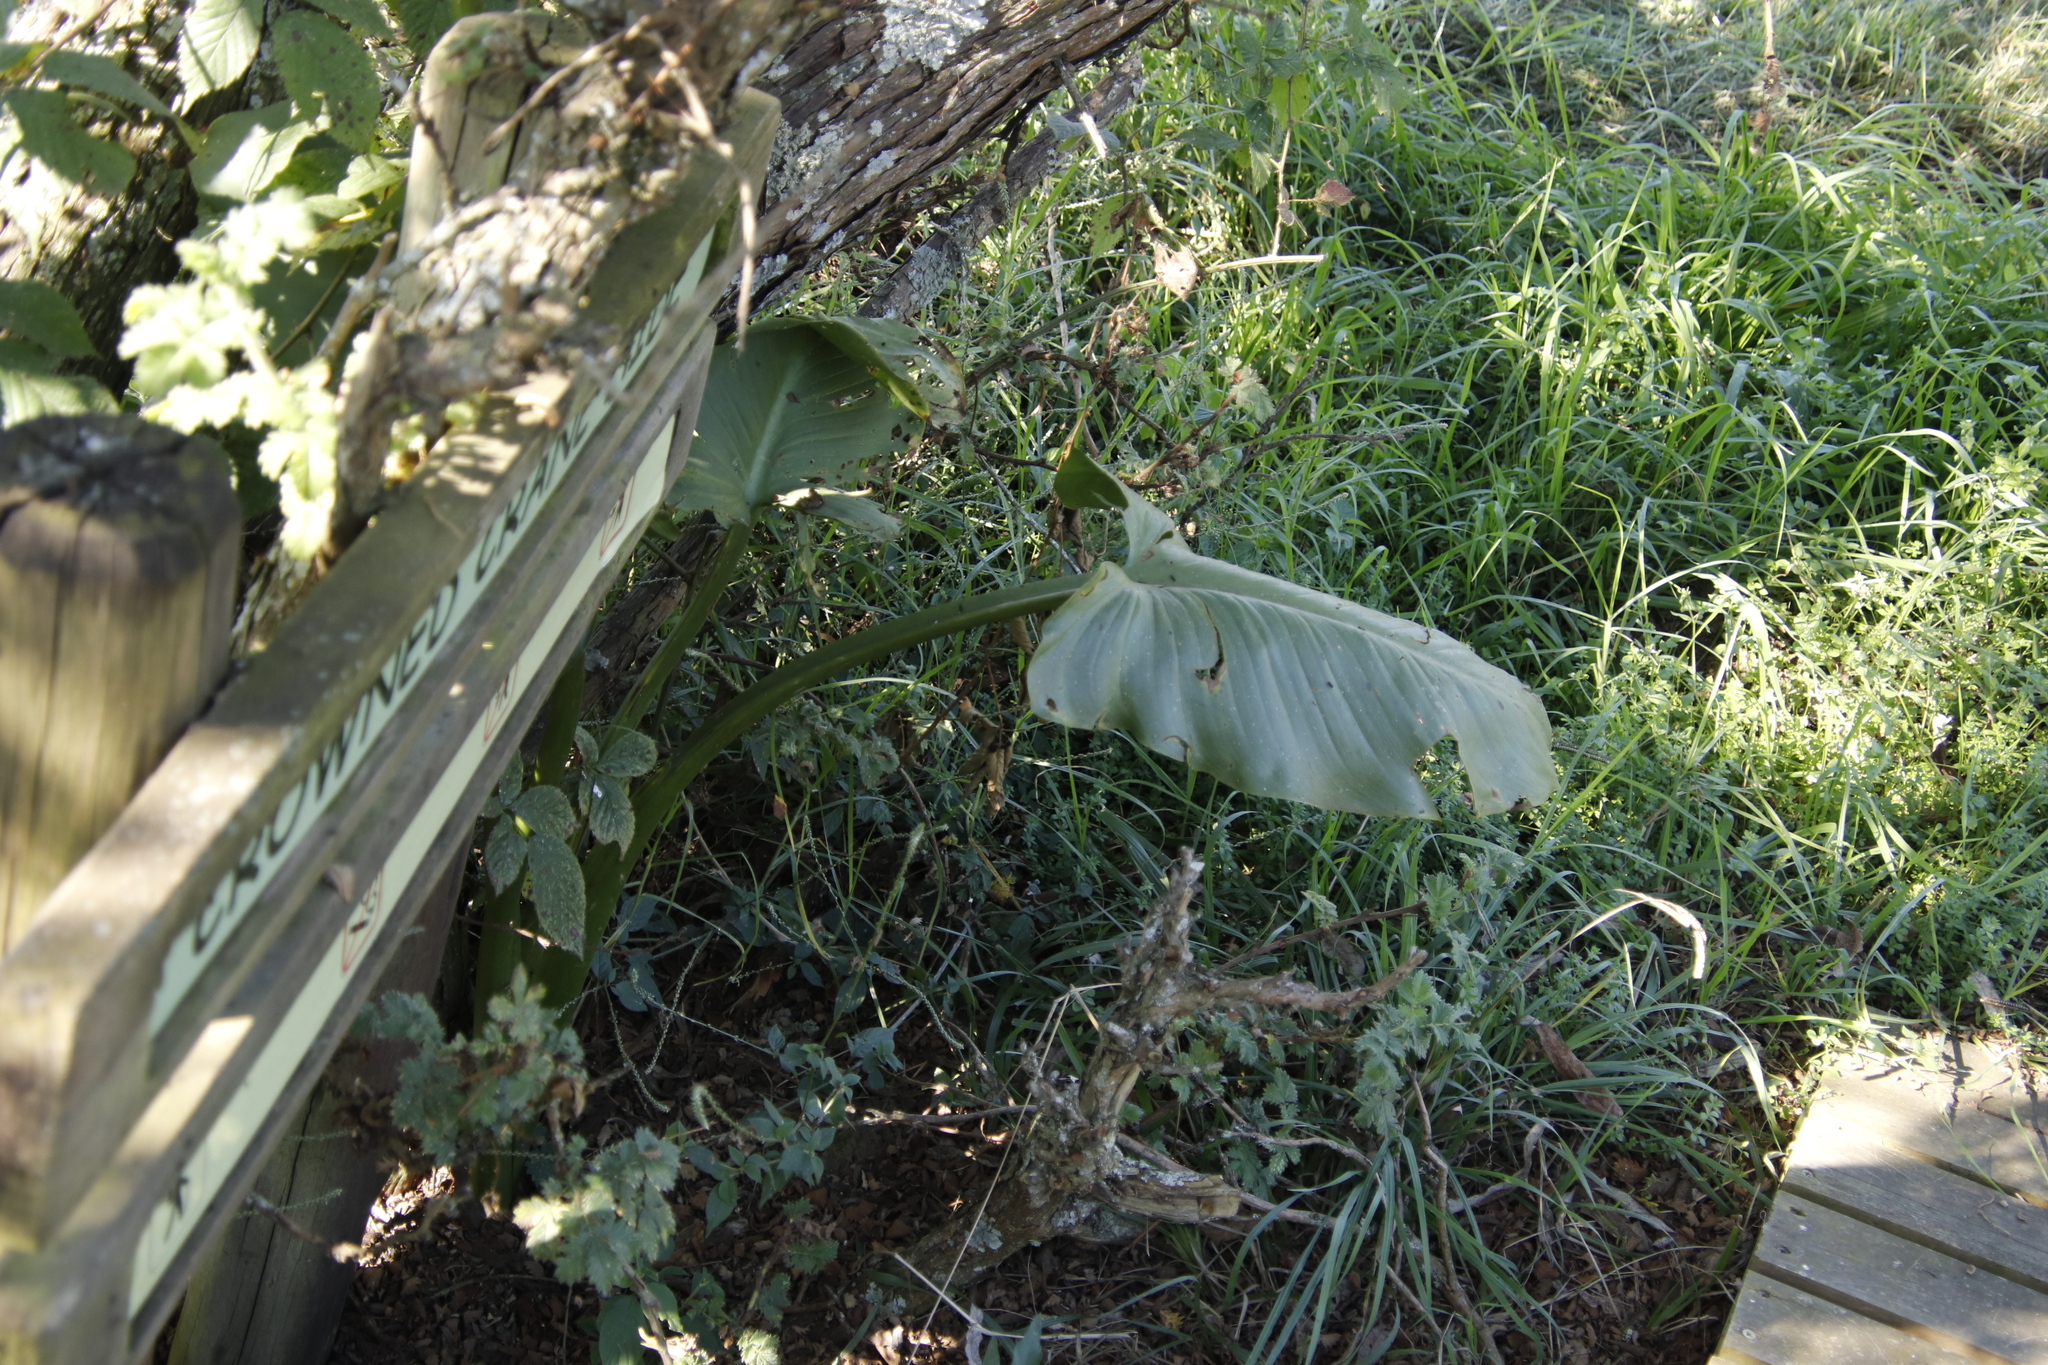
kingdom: Plantae
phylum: Tracheophyta
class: Liliopsida
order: Alismatales
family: Araceae
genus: Zantedeschia
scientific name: Zantedeschia aethiopica
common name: Altar-lily
